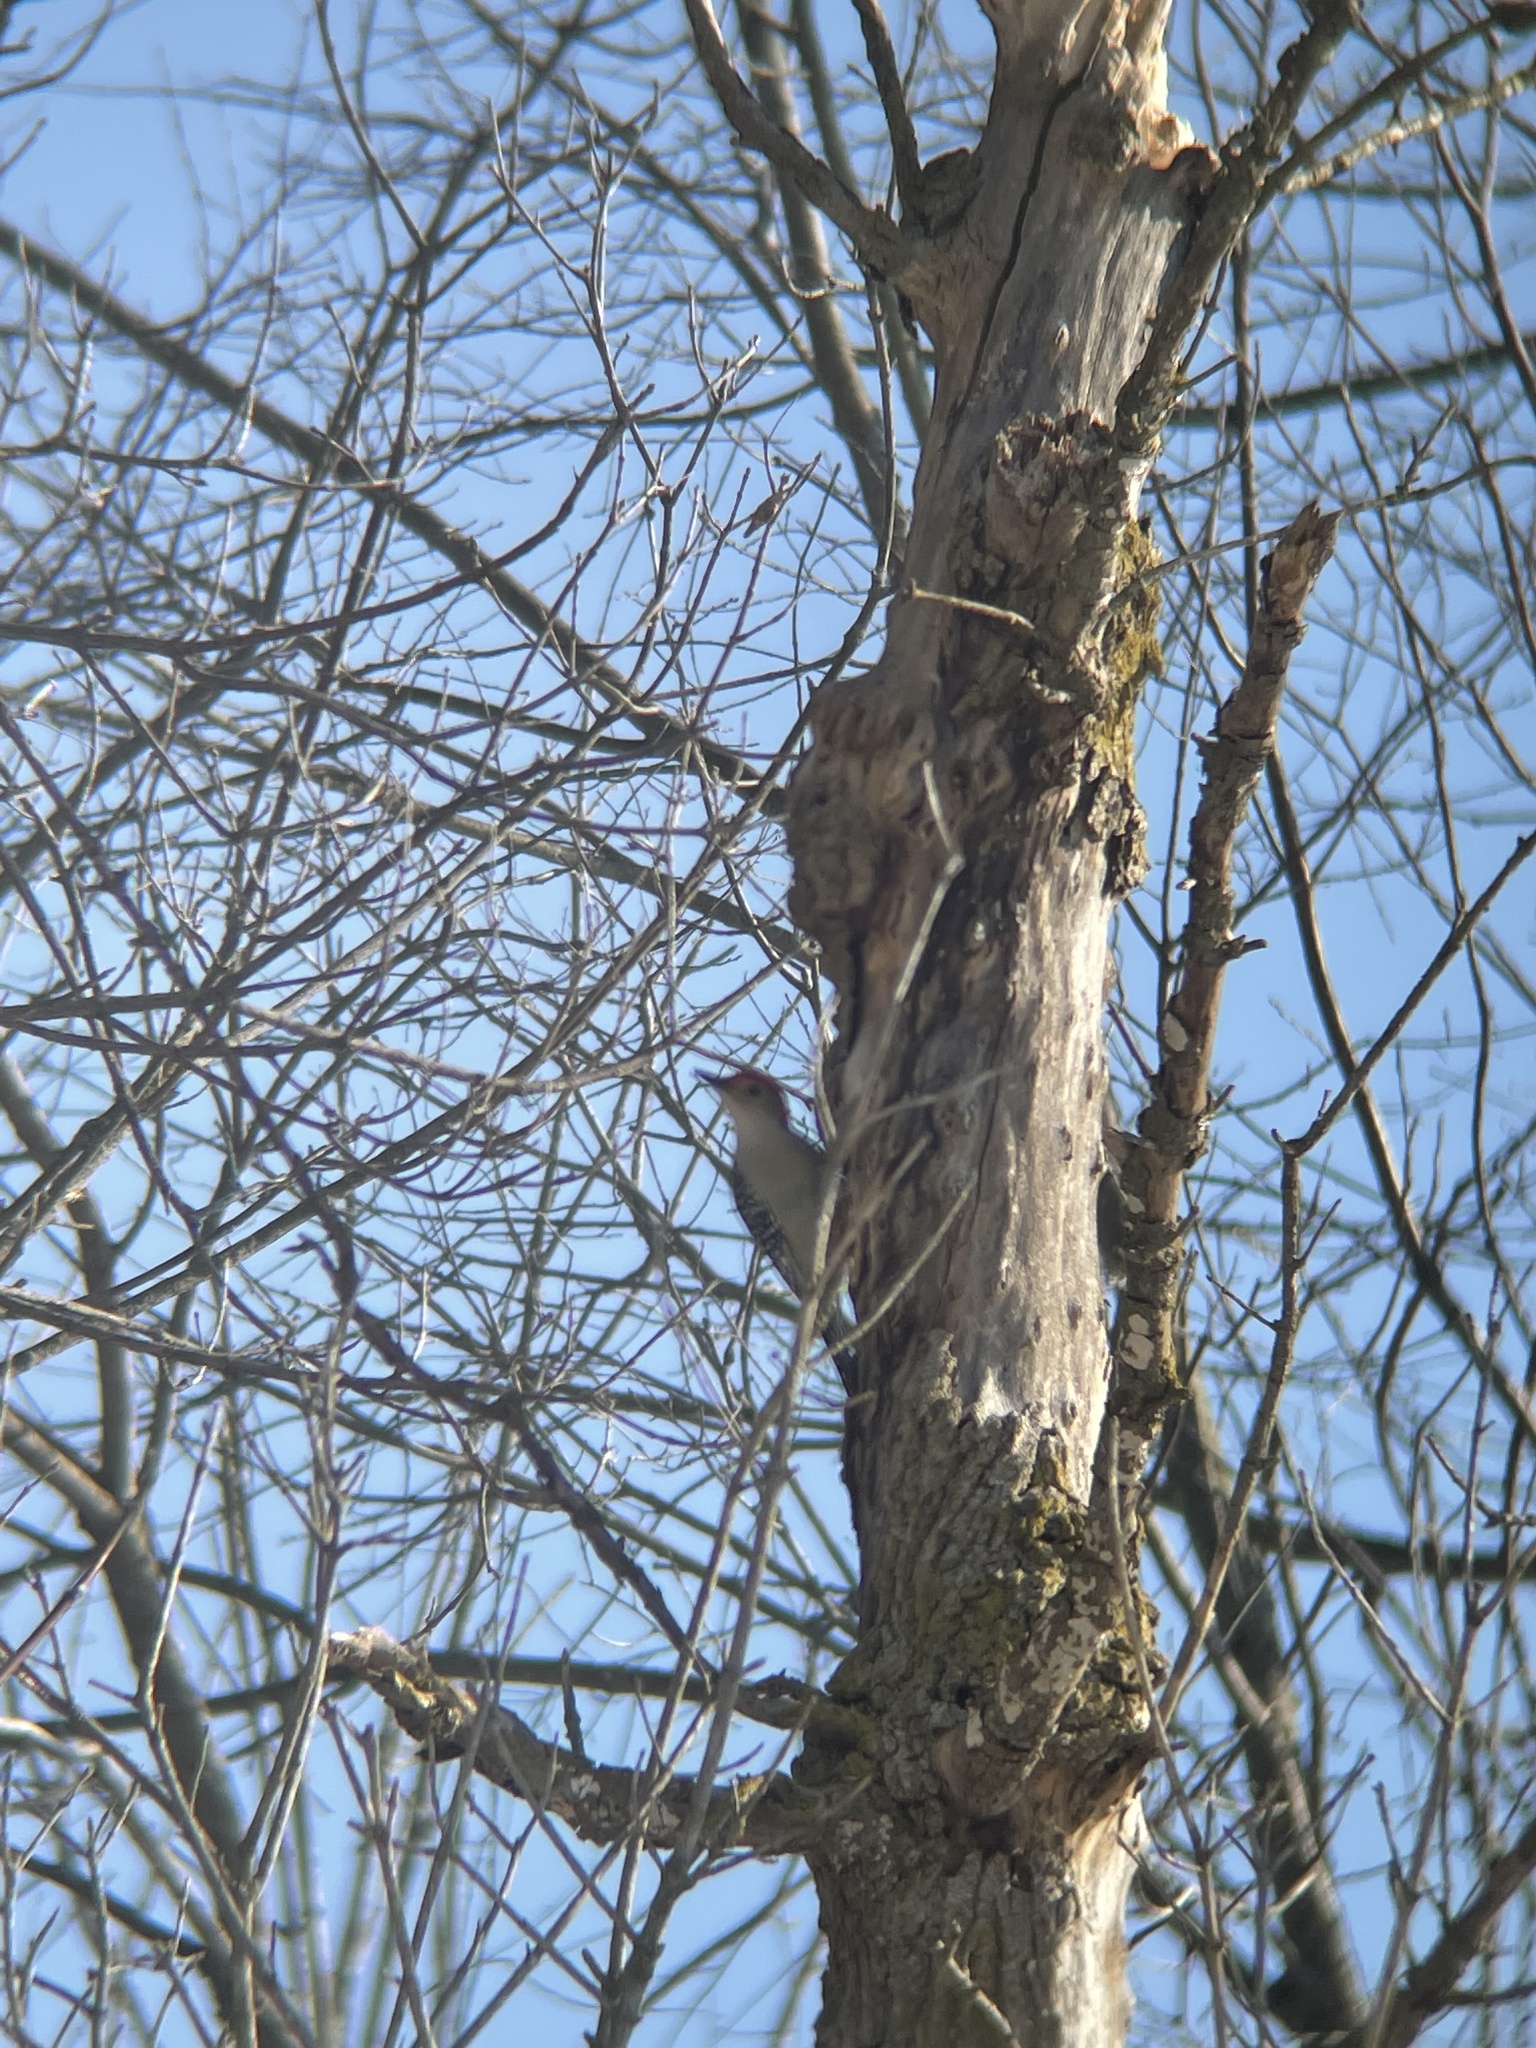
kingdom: Animalia
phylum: Chordata
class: Aves
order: Piciformes
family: Picidae
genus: Melanerpes
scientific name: Melanerpes carolinus
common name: Red-bellied woodpecker
